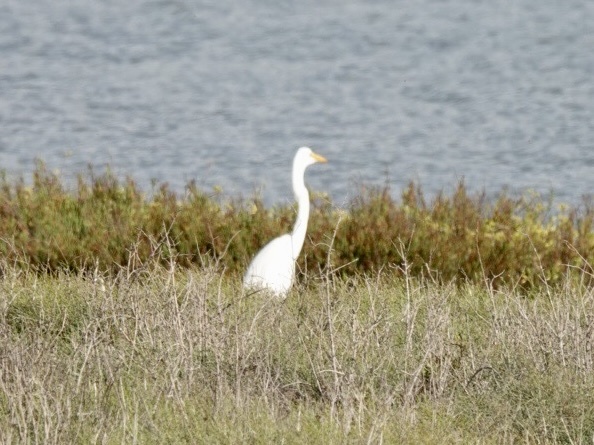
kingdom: Animalia
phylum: Chordata
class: Aves
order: Pelecaniformes
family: Ardeidae
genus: Ardea
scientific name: Ardea alba
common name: Great egret
